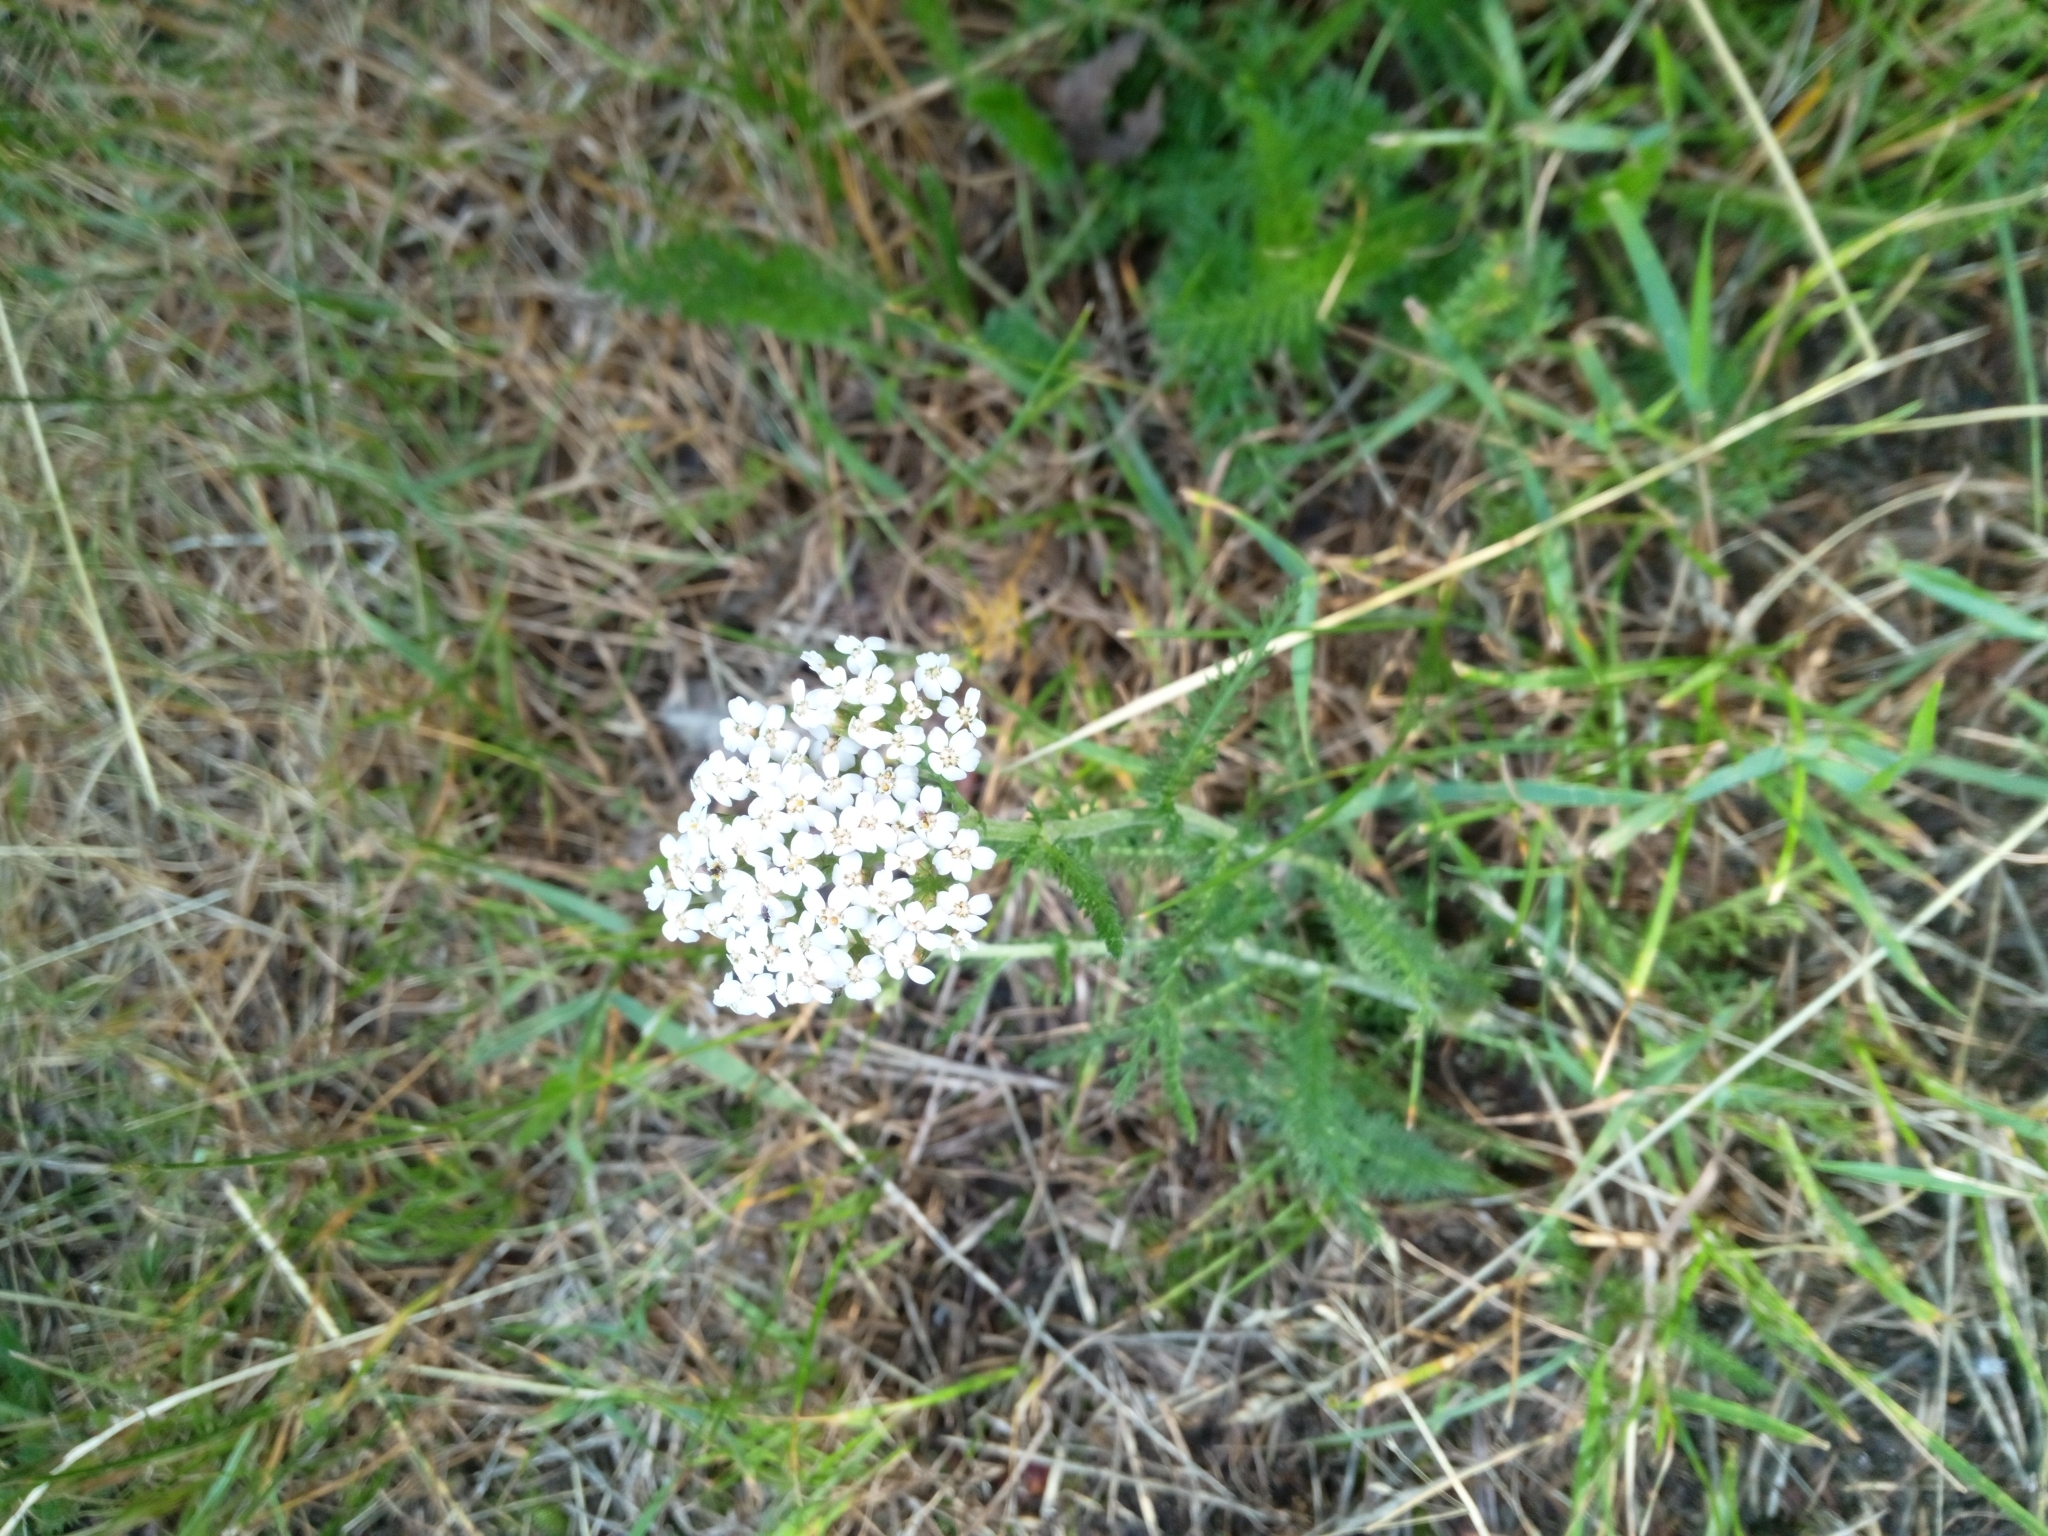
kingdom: Plantae
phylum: Tracheophyta
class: Magnoliopsida
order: Asterales
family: Asteraceae
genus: Achillea
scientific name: Achillea millefolium
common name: Yarrow
